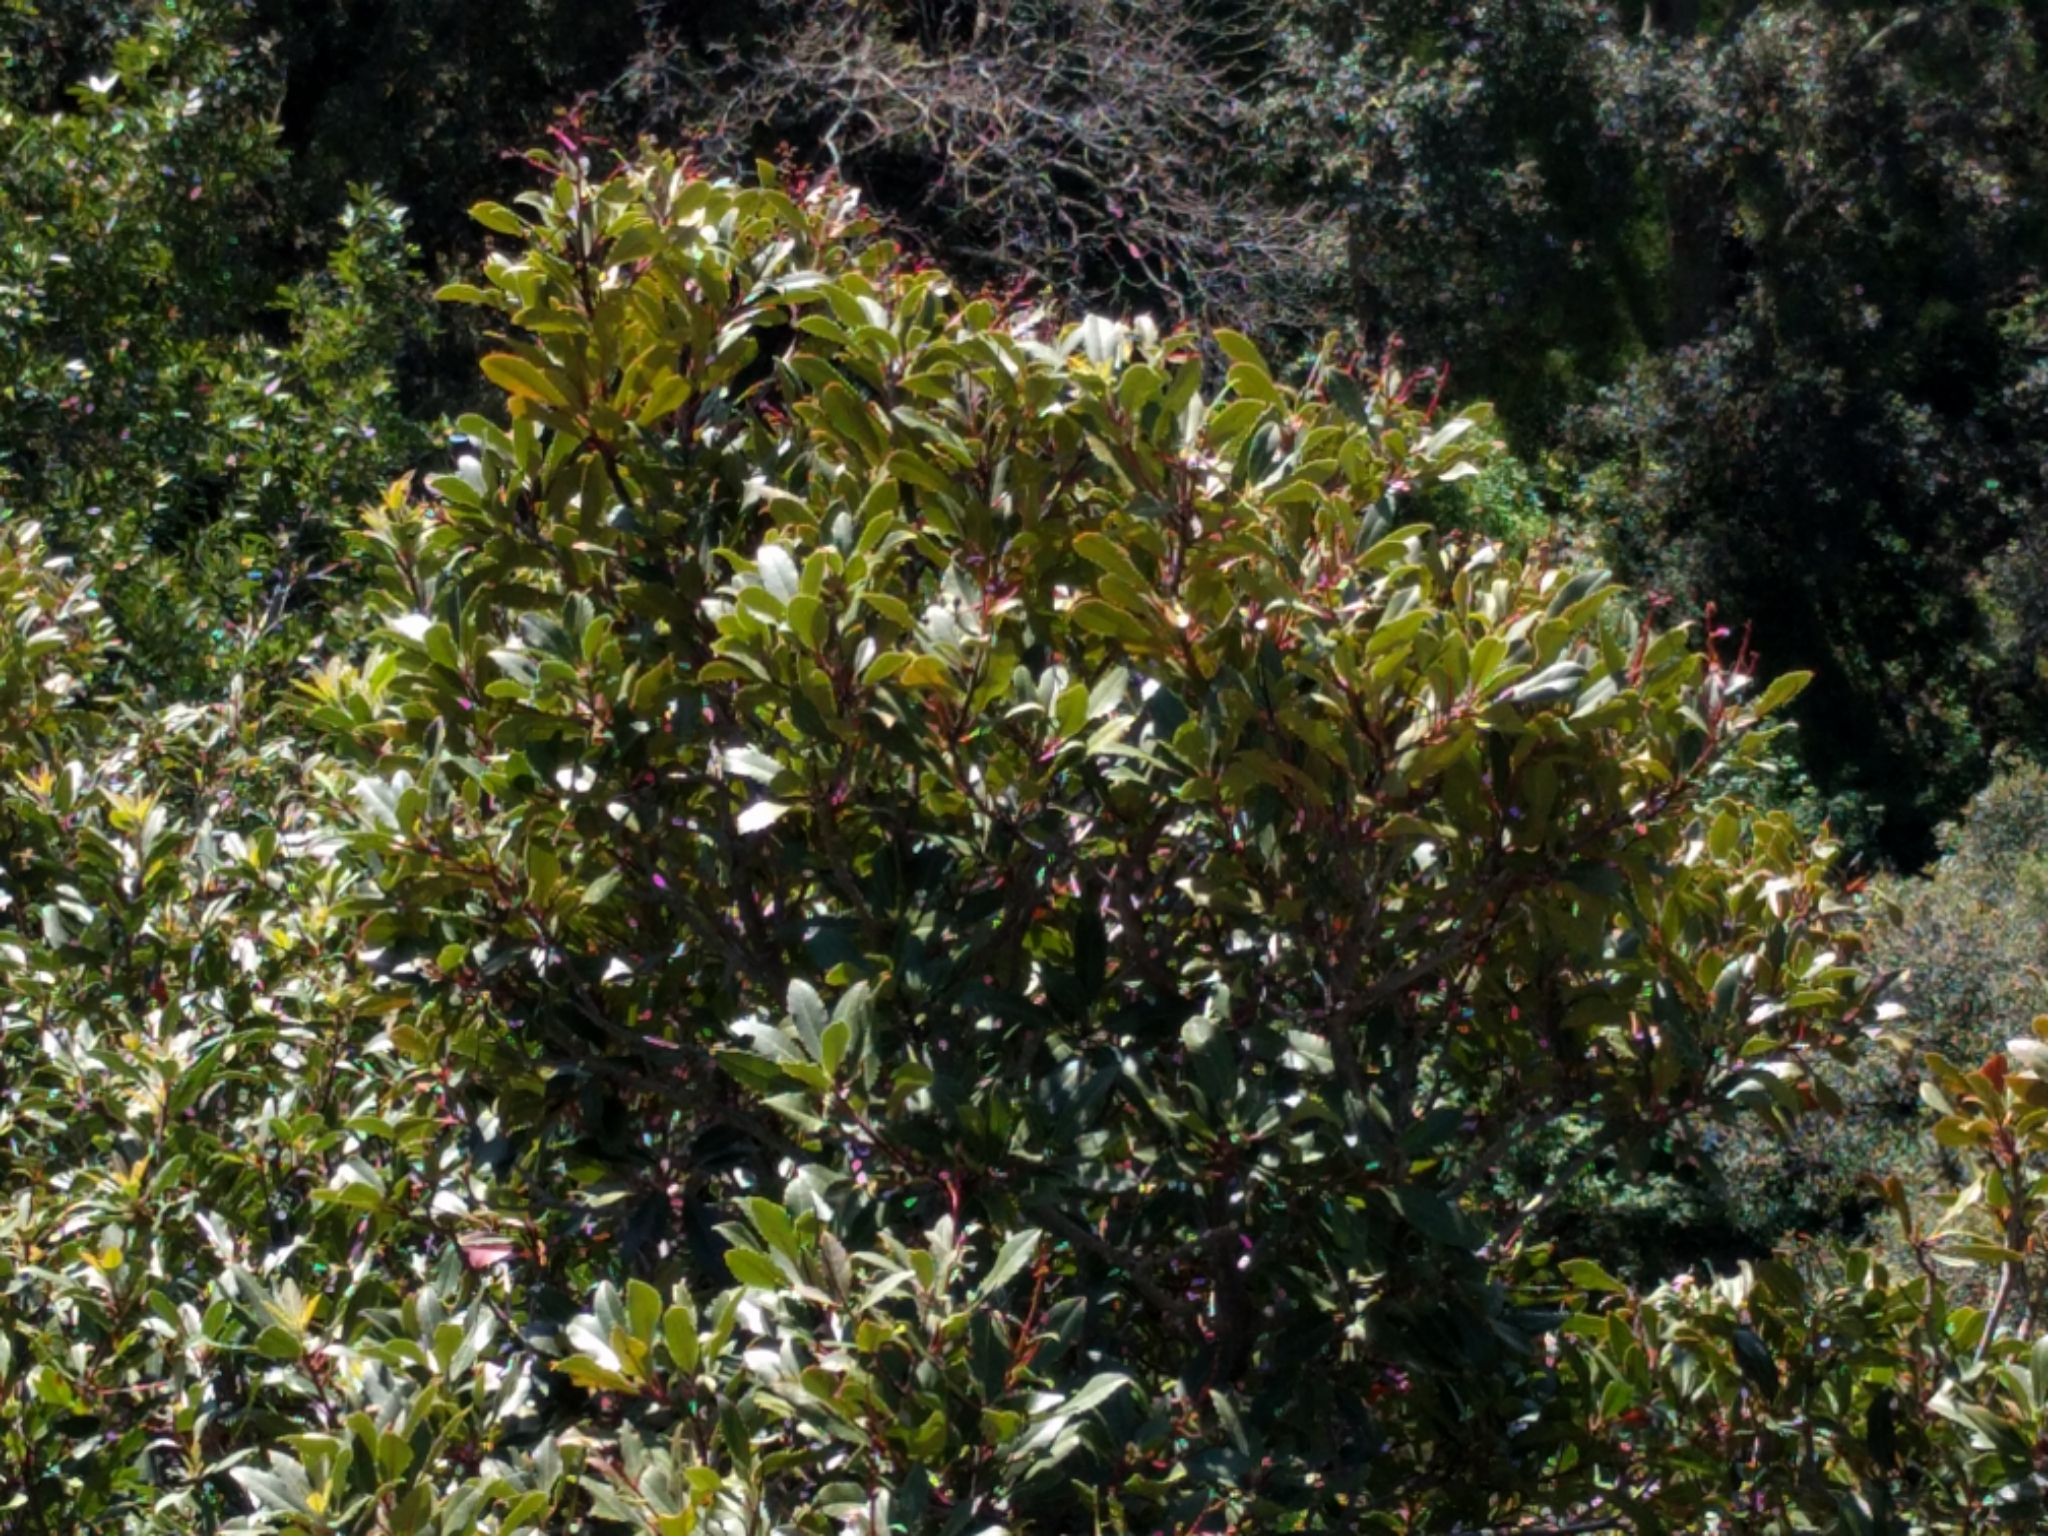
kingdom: Plantae
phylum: Tracheophyta
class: Magnoliopsida
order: Rosales
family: Rosaceae
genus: Heteromeles
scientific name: Heteromeles arbutifolia
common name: California-holly
